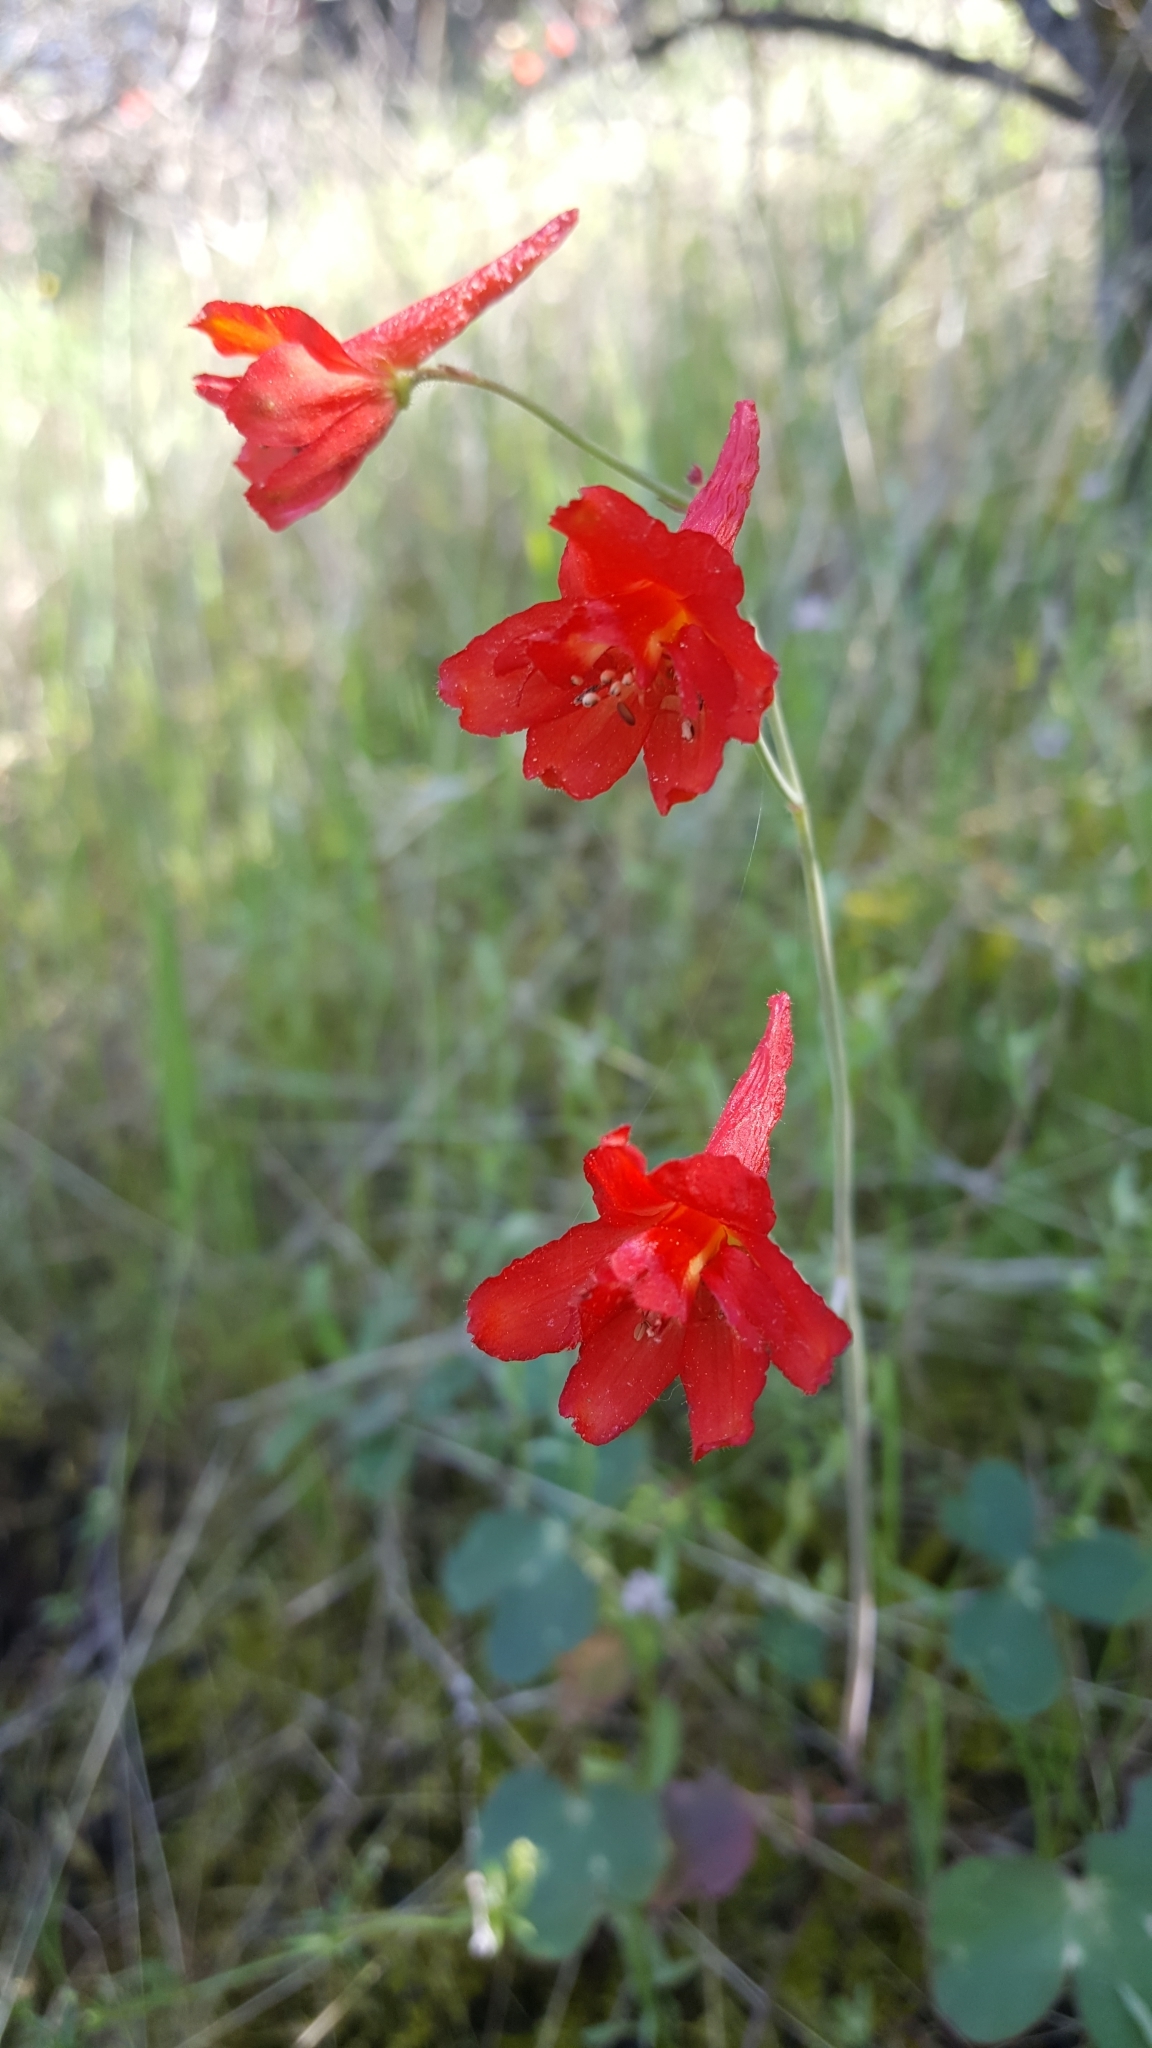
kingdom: Plantae
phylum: Tracheophyta
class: Magnoliopsida
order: Ranunculales
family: Ranunculaceae
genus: Delphinium
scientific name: Delphinium nudicaule
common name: Red larkspur
